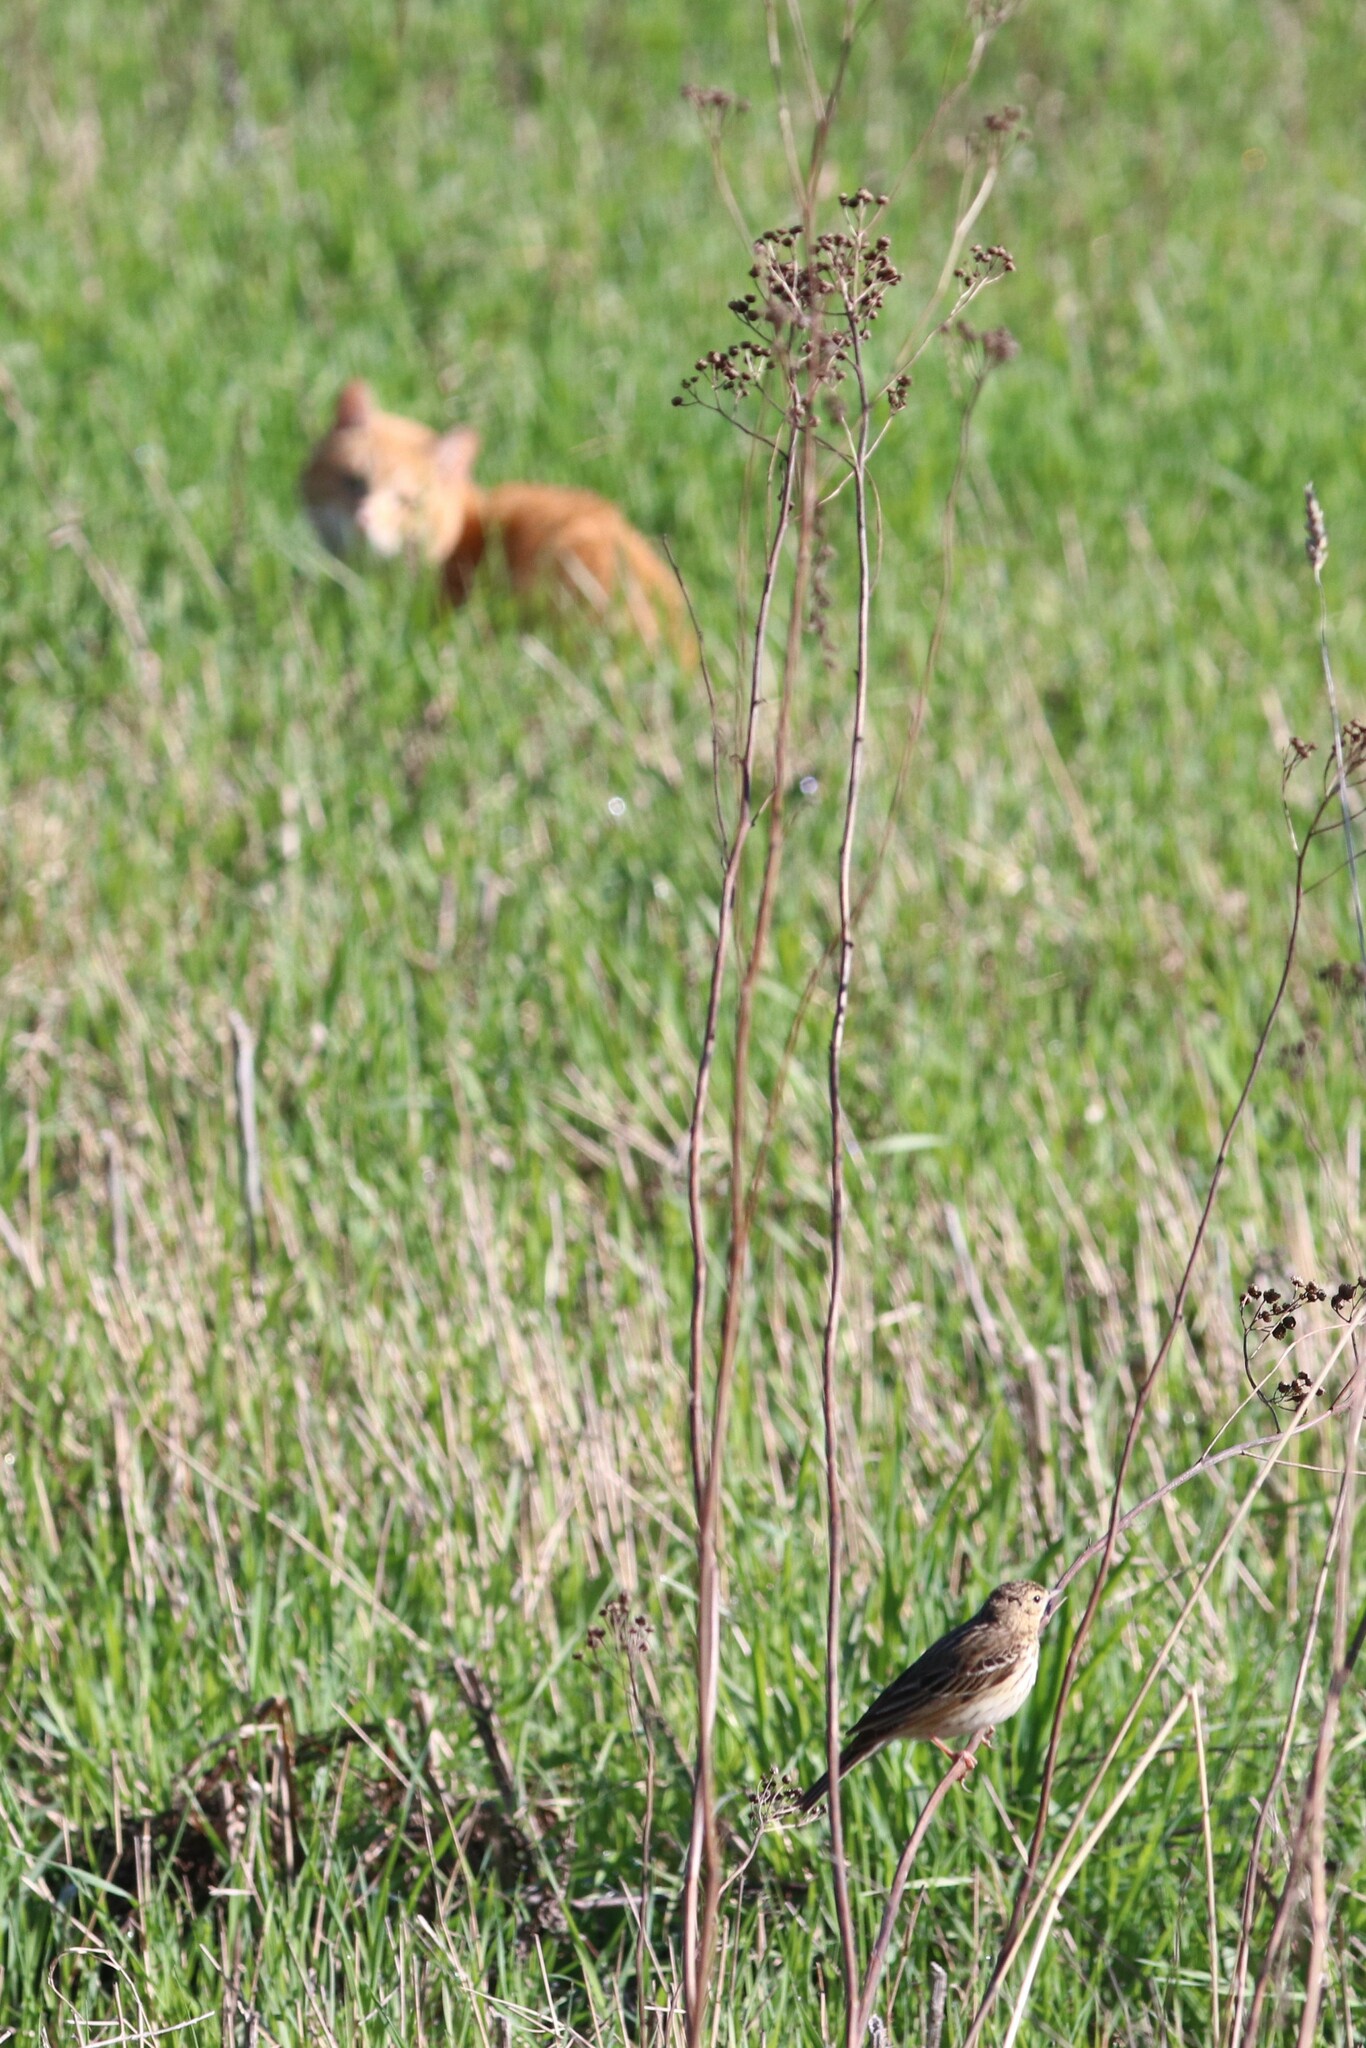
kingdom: Animalia
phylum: Chordata
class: Aves
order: Passeriformes
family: Motacillidae
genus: Anthus
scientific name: Anthus trivialis
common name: Tree pipit
